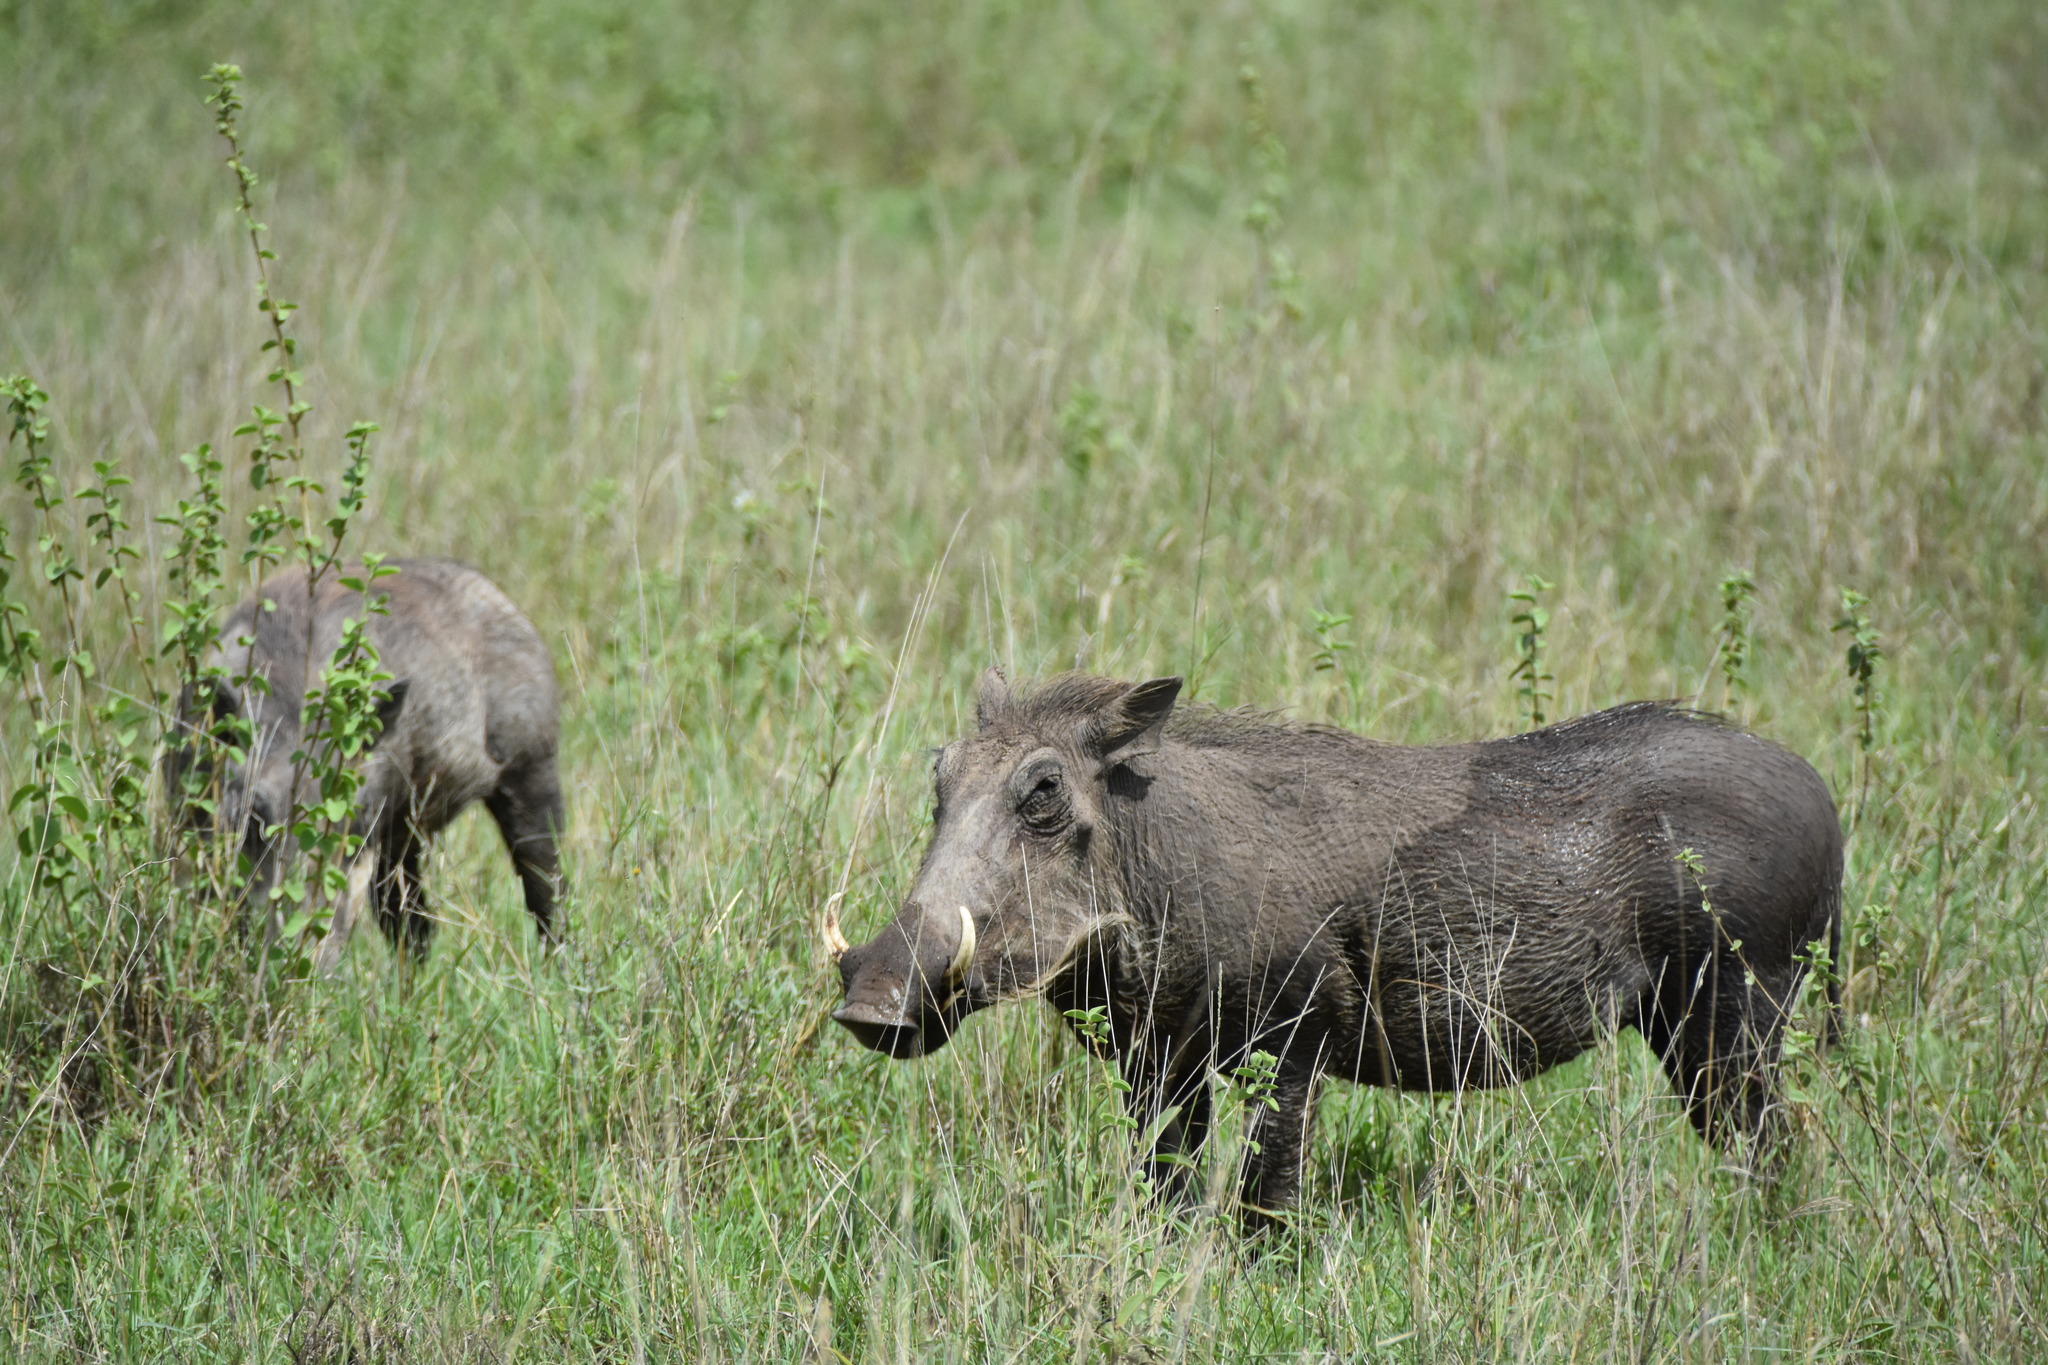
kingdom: Animalia
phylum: Chordata
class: Mammalia
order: Artiodactyla
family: Suidae
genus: Phacochoerus
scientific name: Phacochoerus africanus
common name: Common warthog
